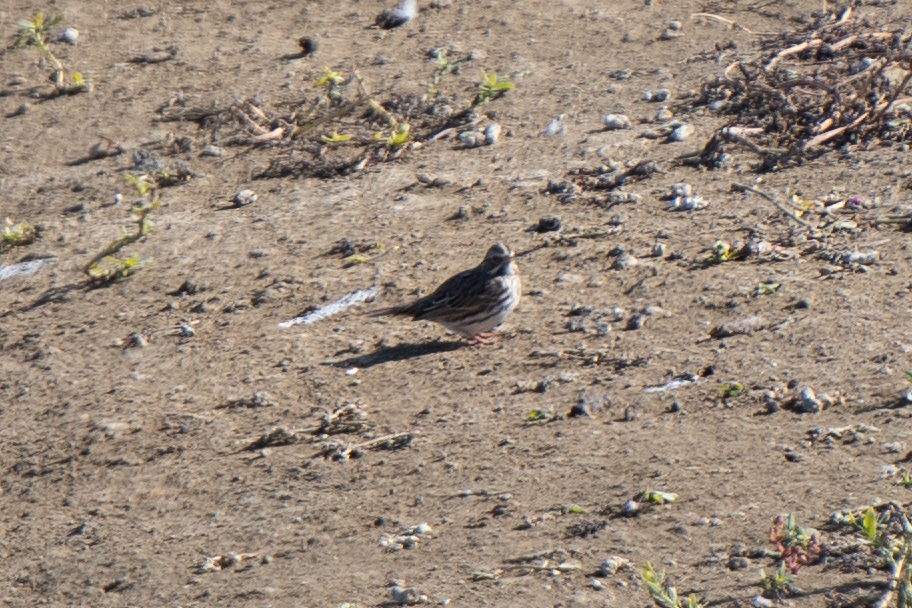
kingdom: Animalia
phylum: Chordata
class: Aves
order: Passeriformes
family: Passerellidae
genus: Passerculus
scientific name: Passerculus sandwichensis
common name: Savannah sparrow
